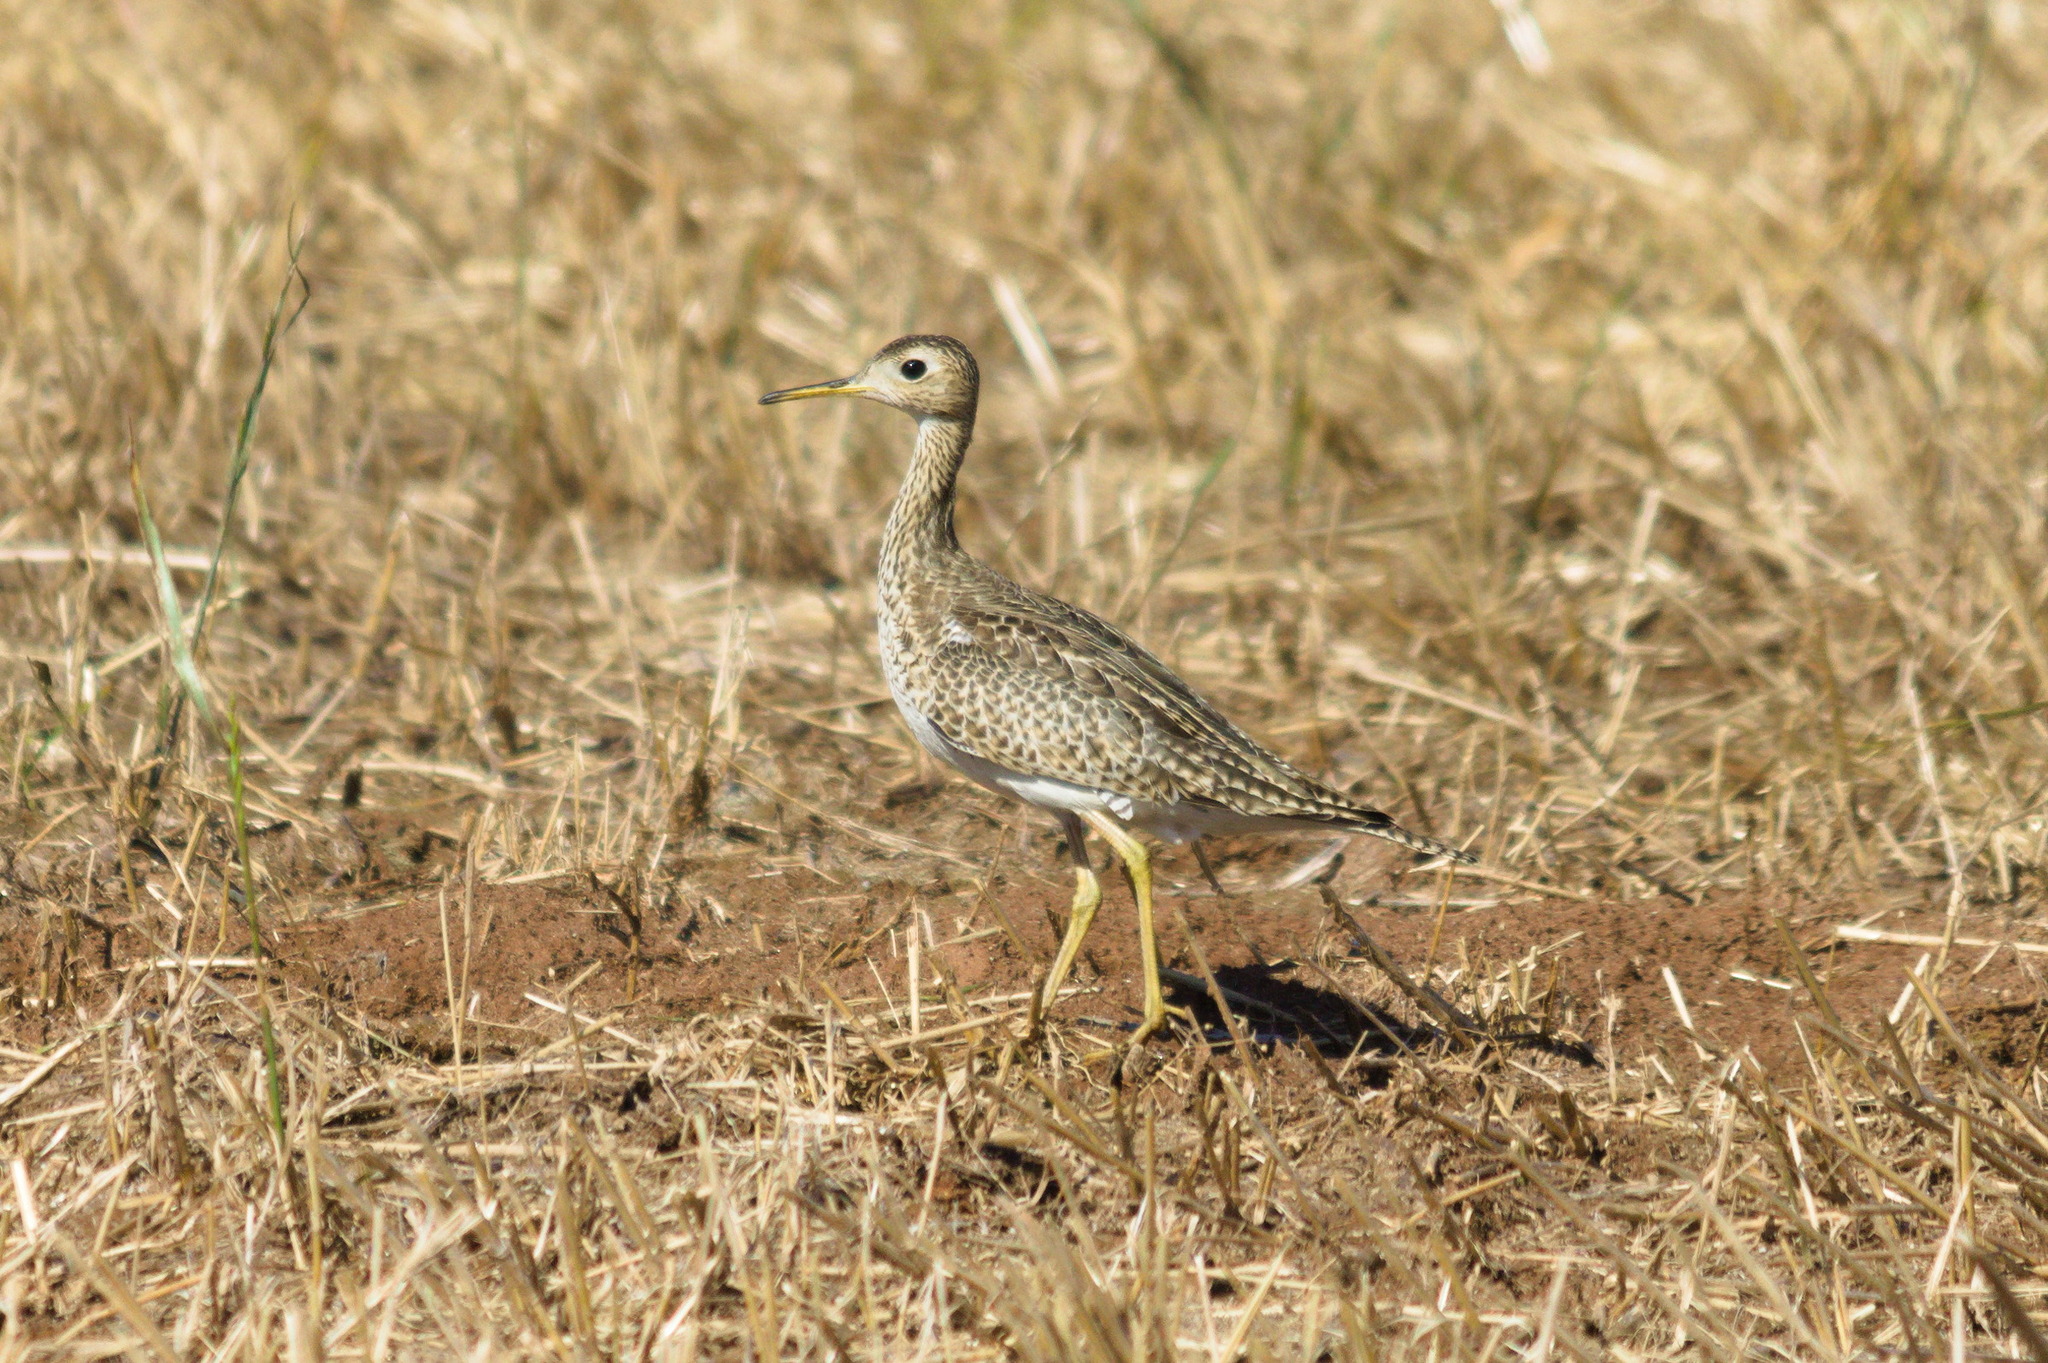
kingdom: Animalia
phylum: Chordata
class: Aves
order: Charadriiformes
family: Scolopacidae
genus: Bartramia
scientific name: Bartramia longicauda
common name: Upland sandpiper
